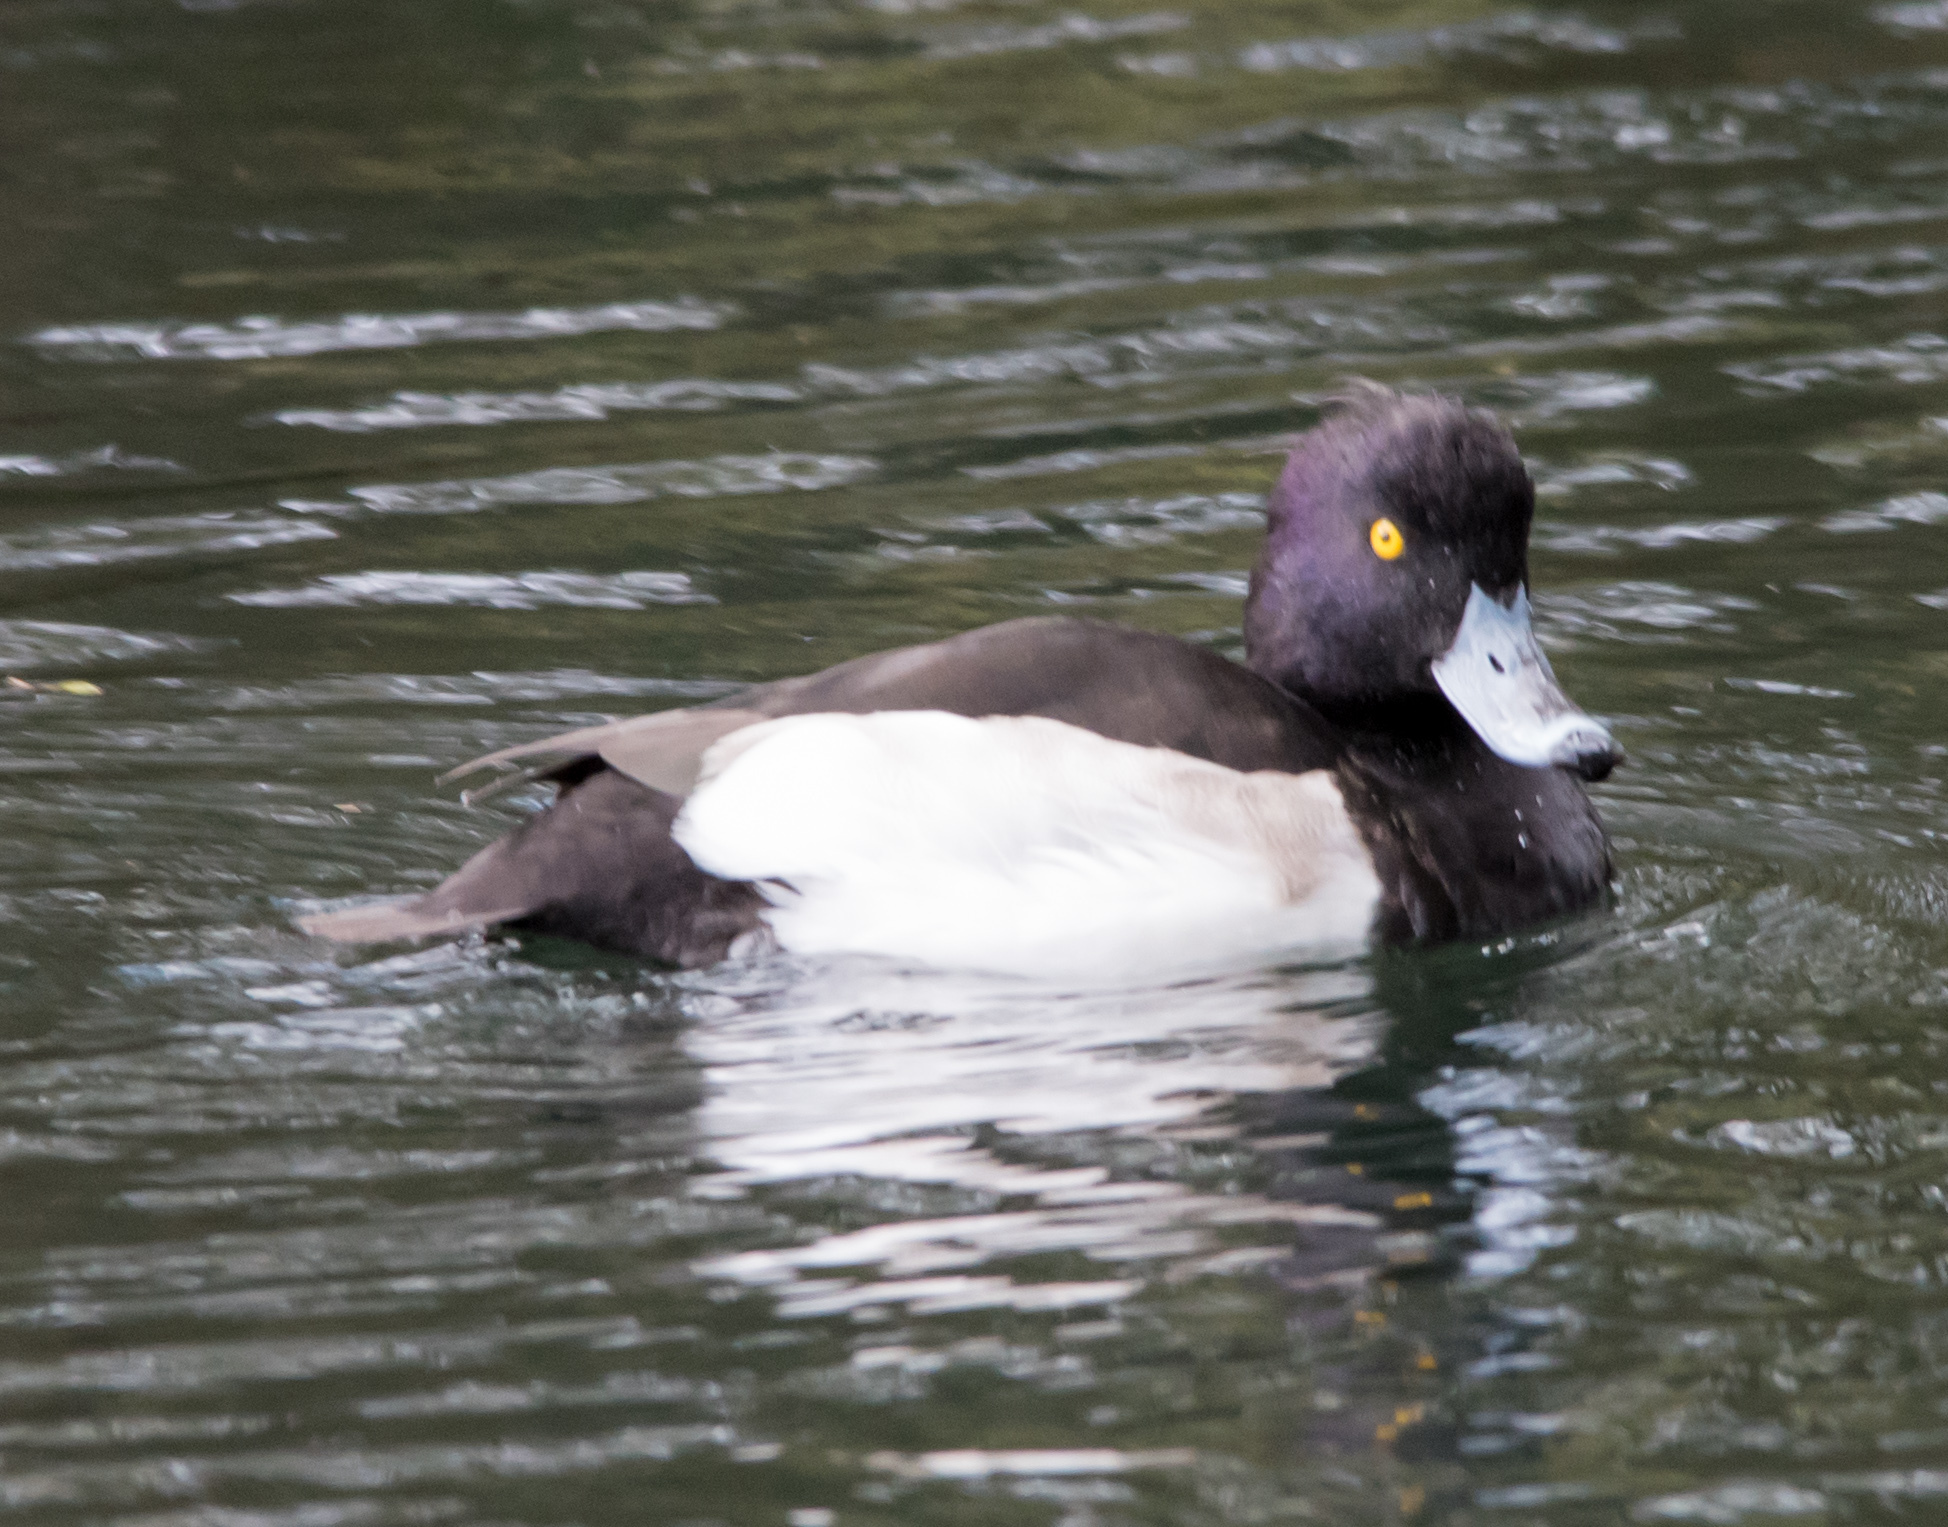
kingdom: Animalia
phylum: Chordata
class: Aves
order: Anseriformes
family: Anatidae
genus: Aythya
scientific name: Aythya fuligula
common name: Tufted duck
